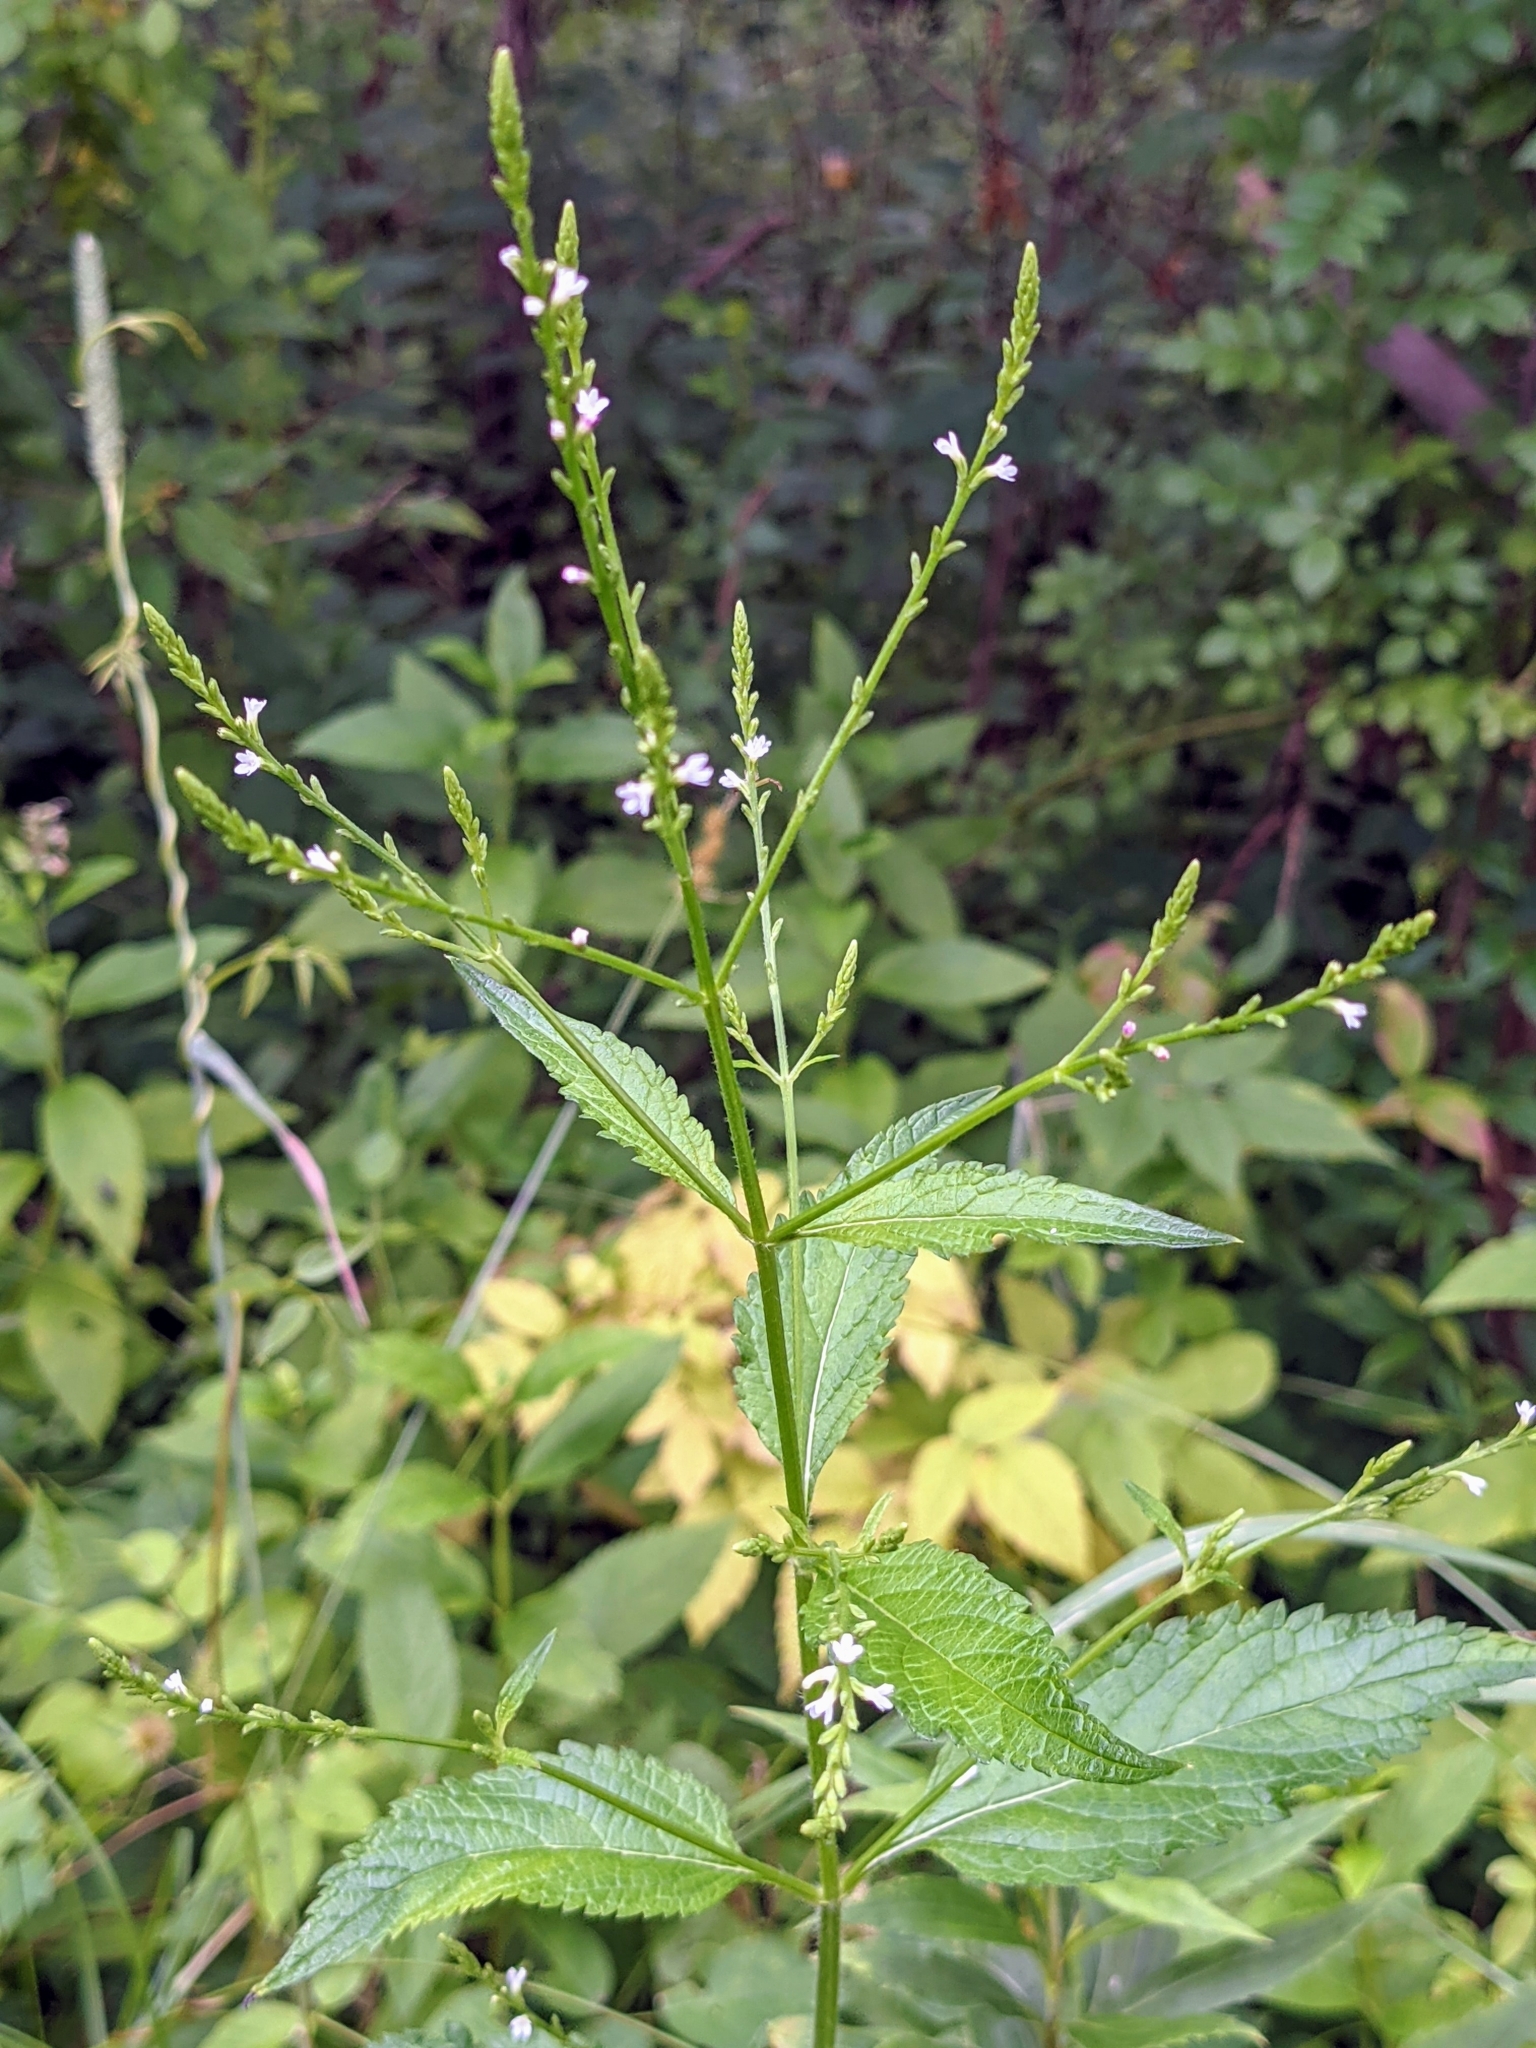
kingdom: Plantae
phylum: Tracheophyta
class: Magnoliopsida
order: Lamiales
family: Verbenaceae
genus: Verbena
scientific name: Verbena urticifolia
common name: Nettle-leaved vervain
